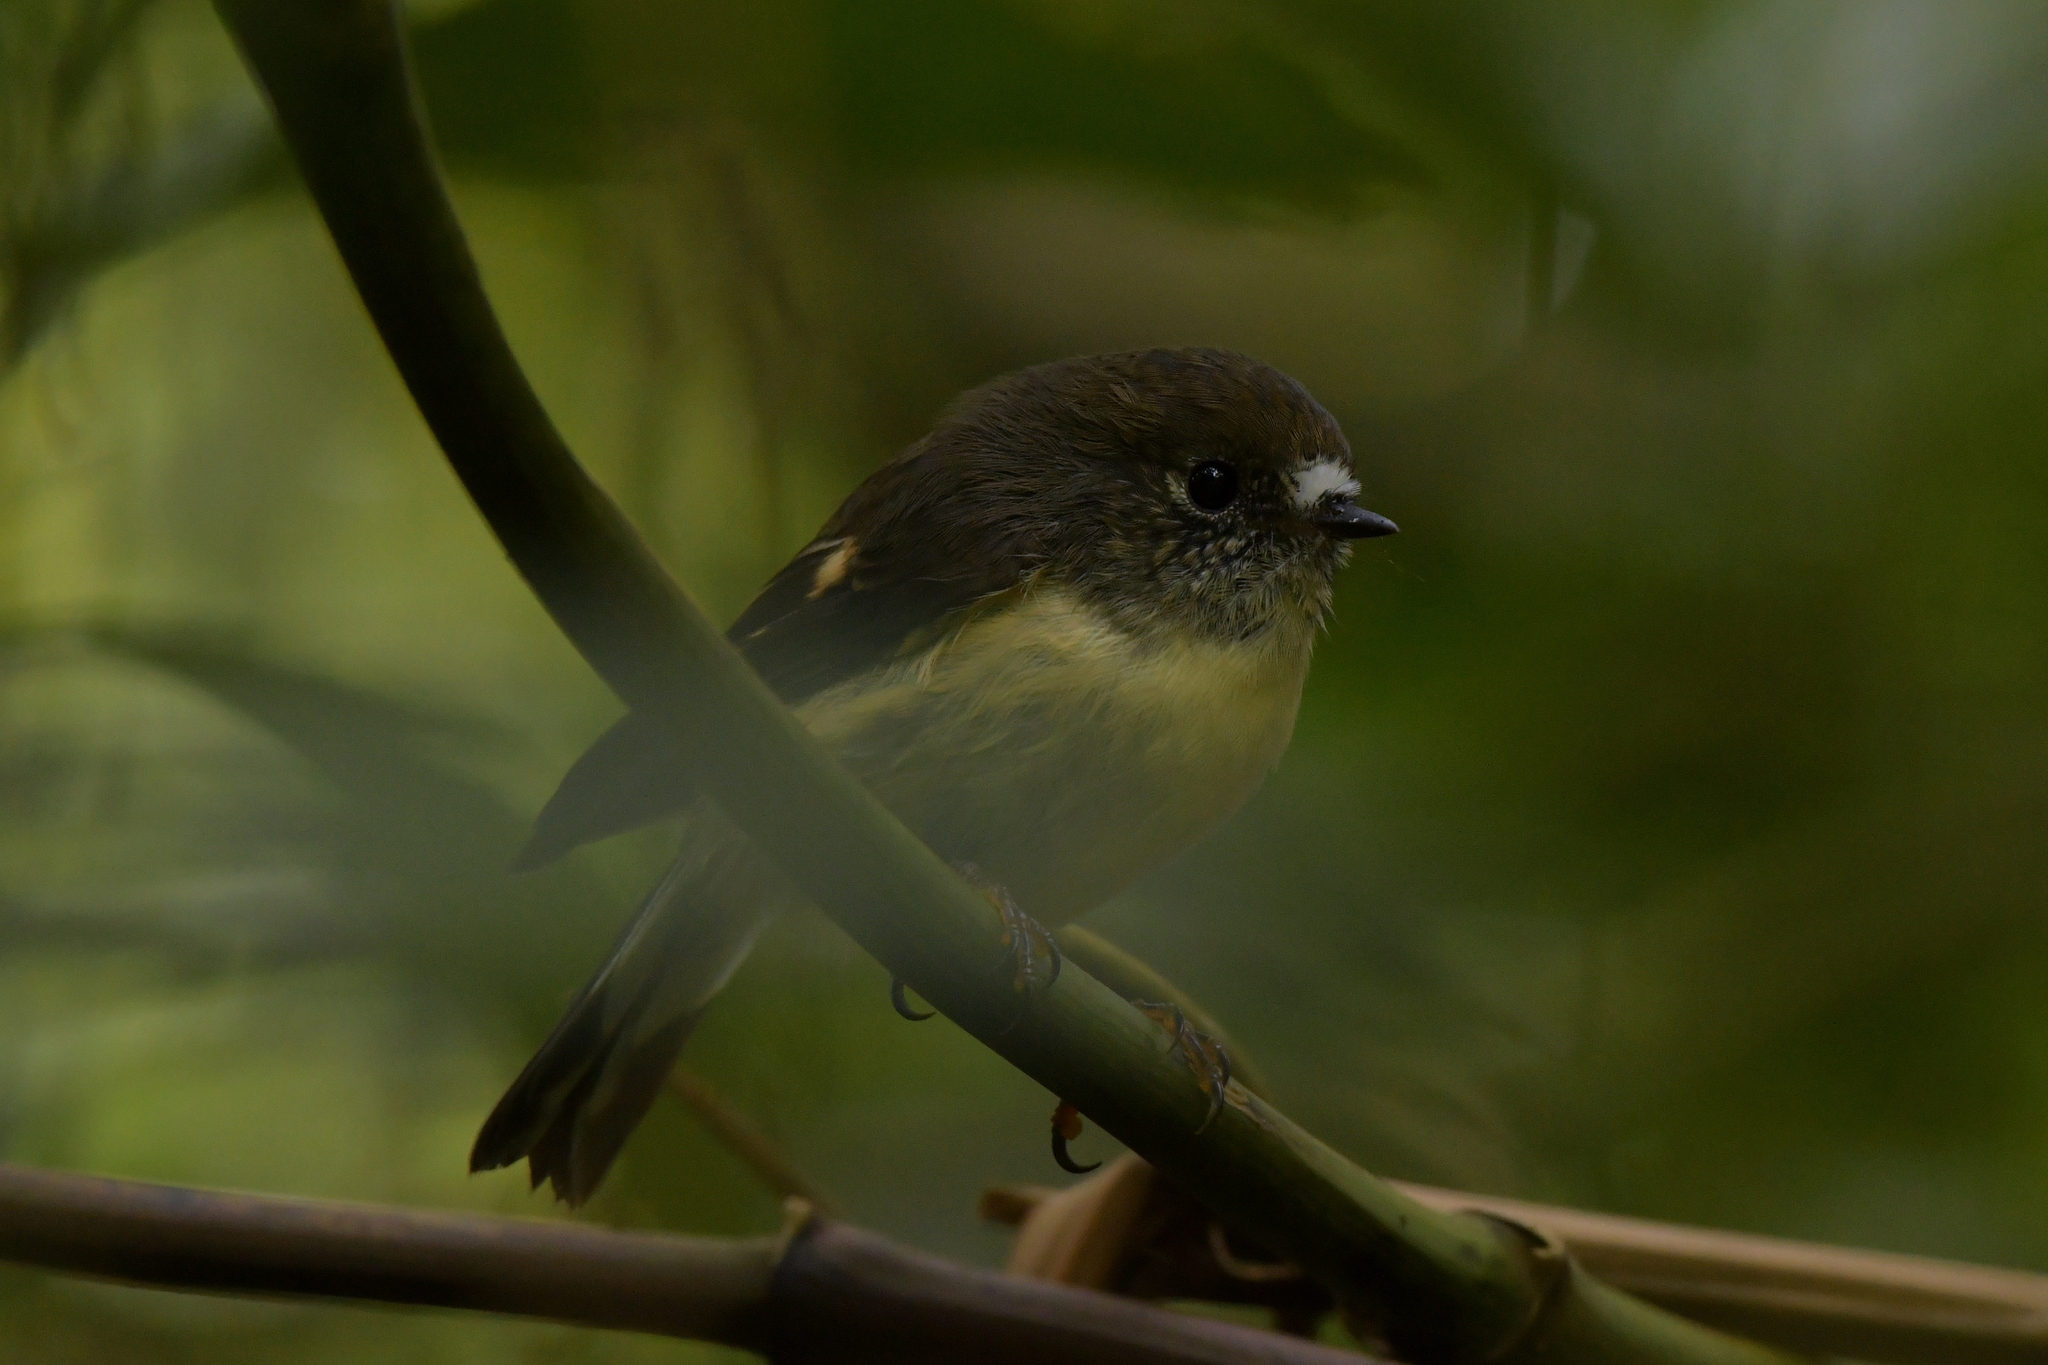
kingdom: Animalia
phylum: Chordata
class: Aves
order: Passeriformes
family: Petroicidae
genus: Petroica
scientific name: Petroica macrocephala
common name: Tomtit
